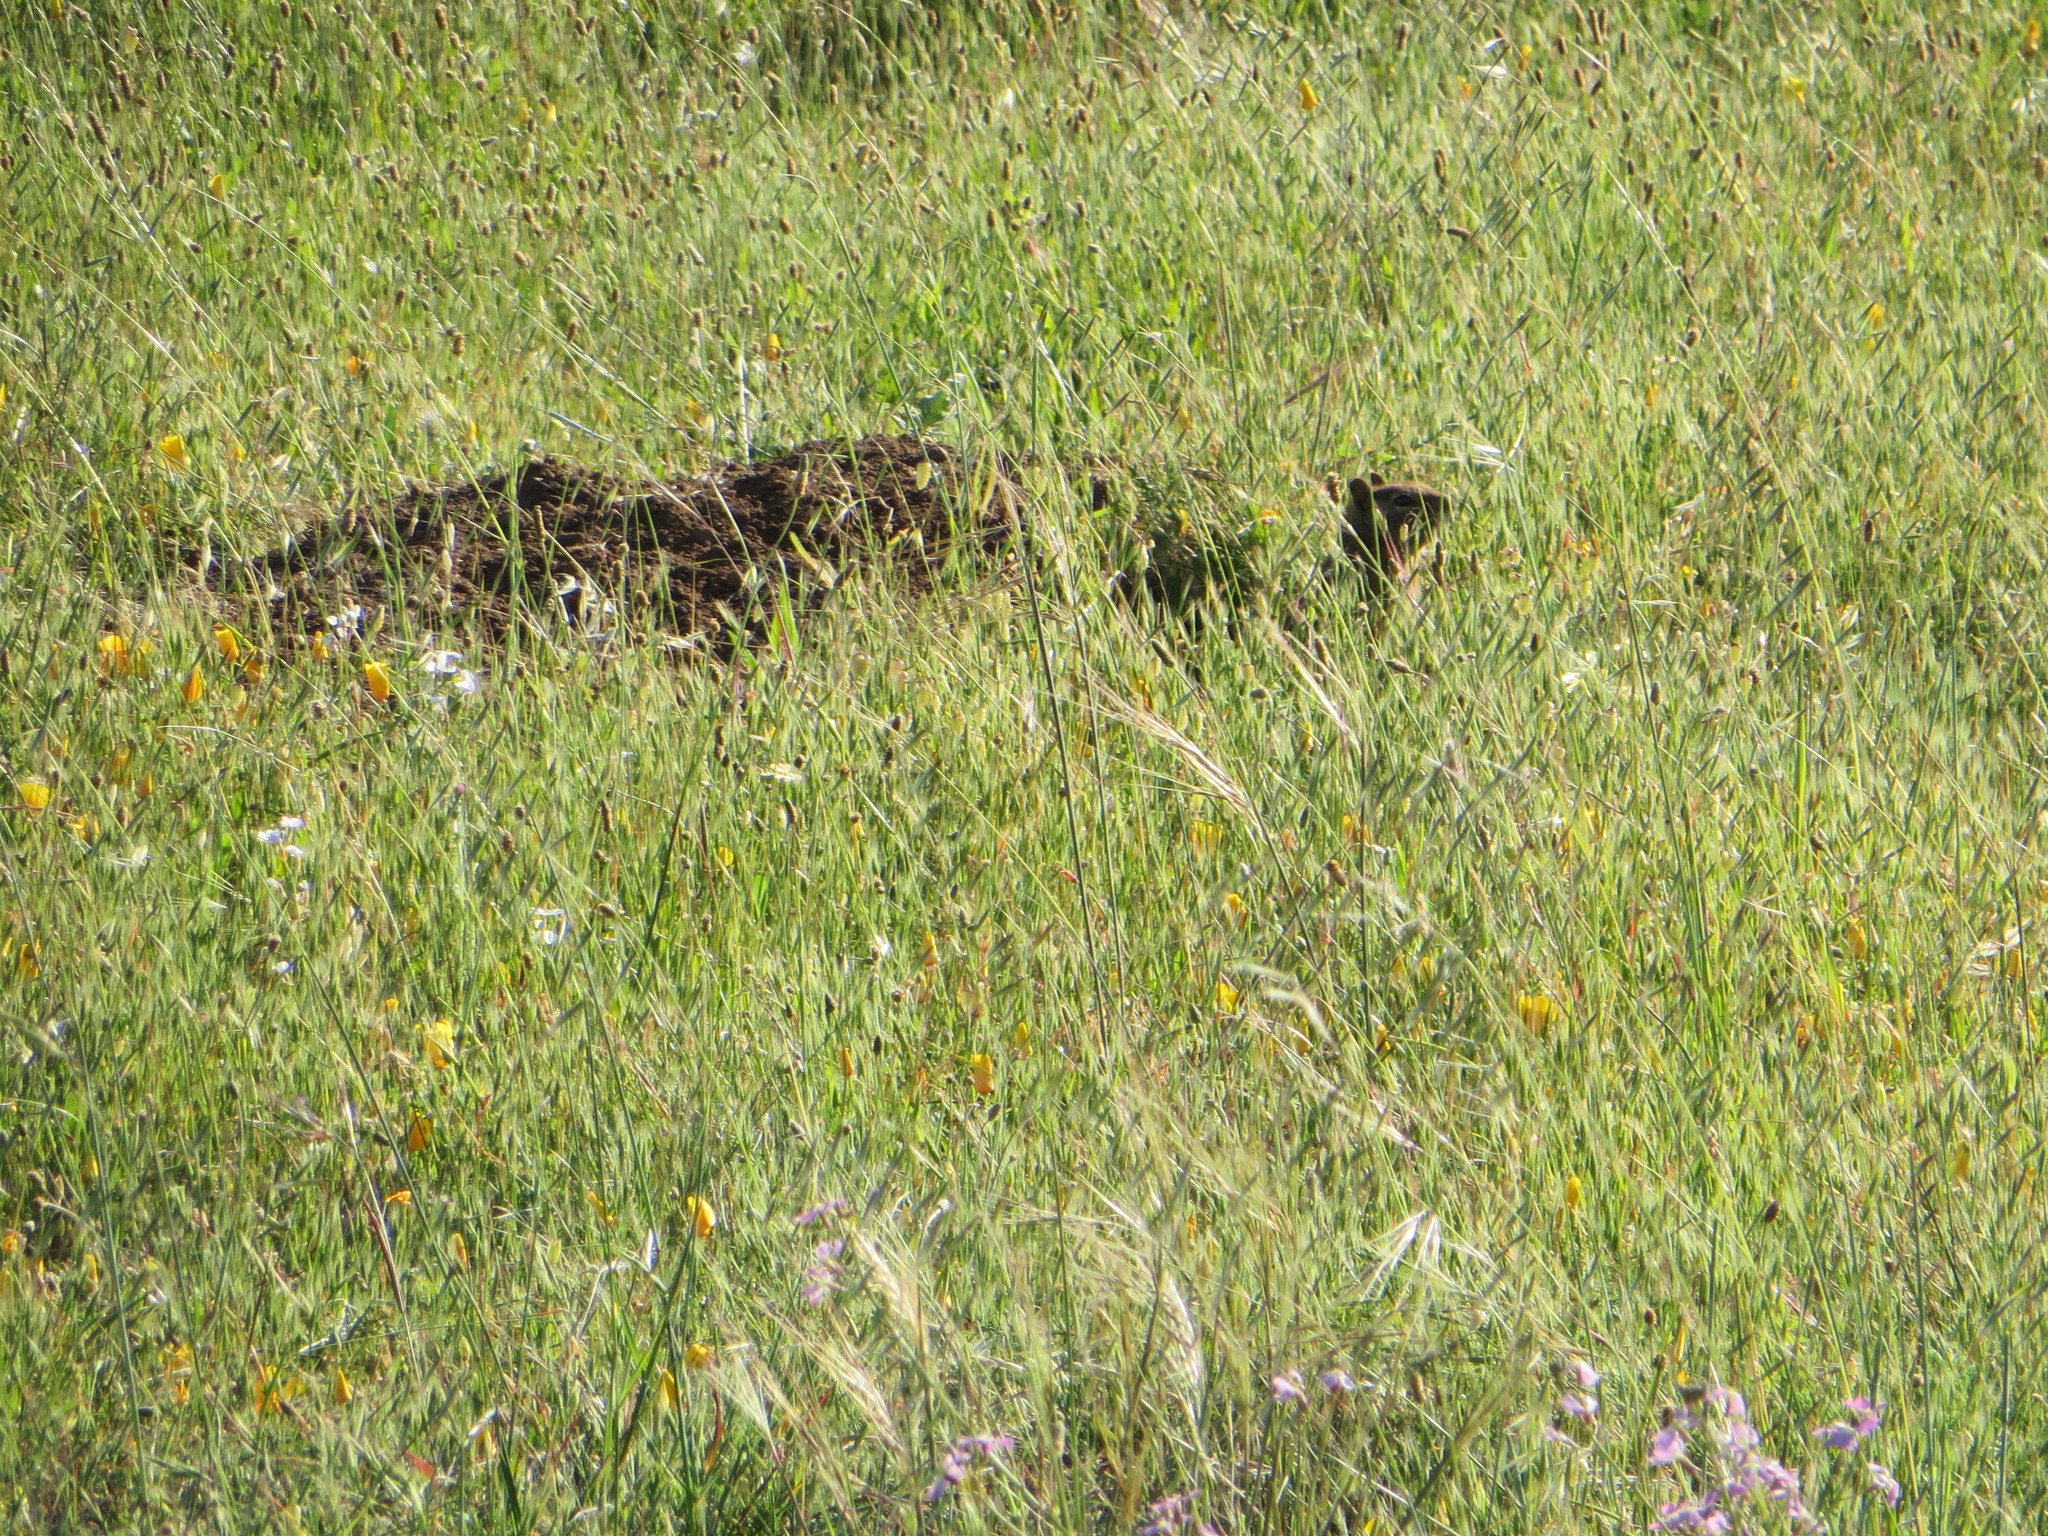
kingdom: Animalia
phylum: Chordata
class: Mammalia
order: Rodentia
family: Sciuridae
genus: Otospermophilus
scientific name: Otospermophilus beecheyi
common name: California ground squirrel
